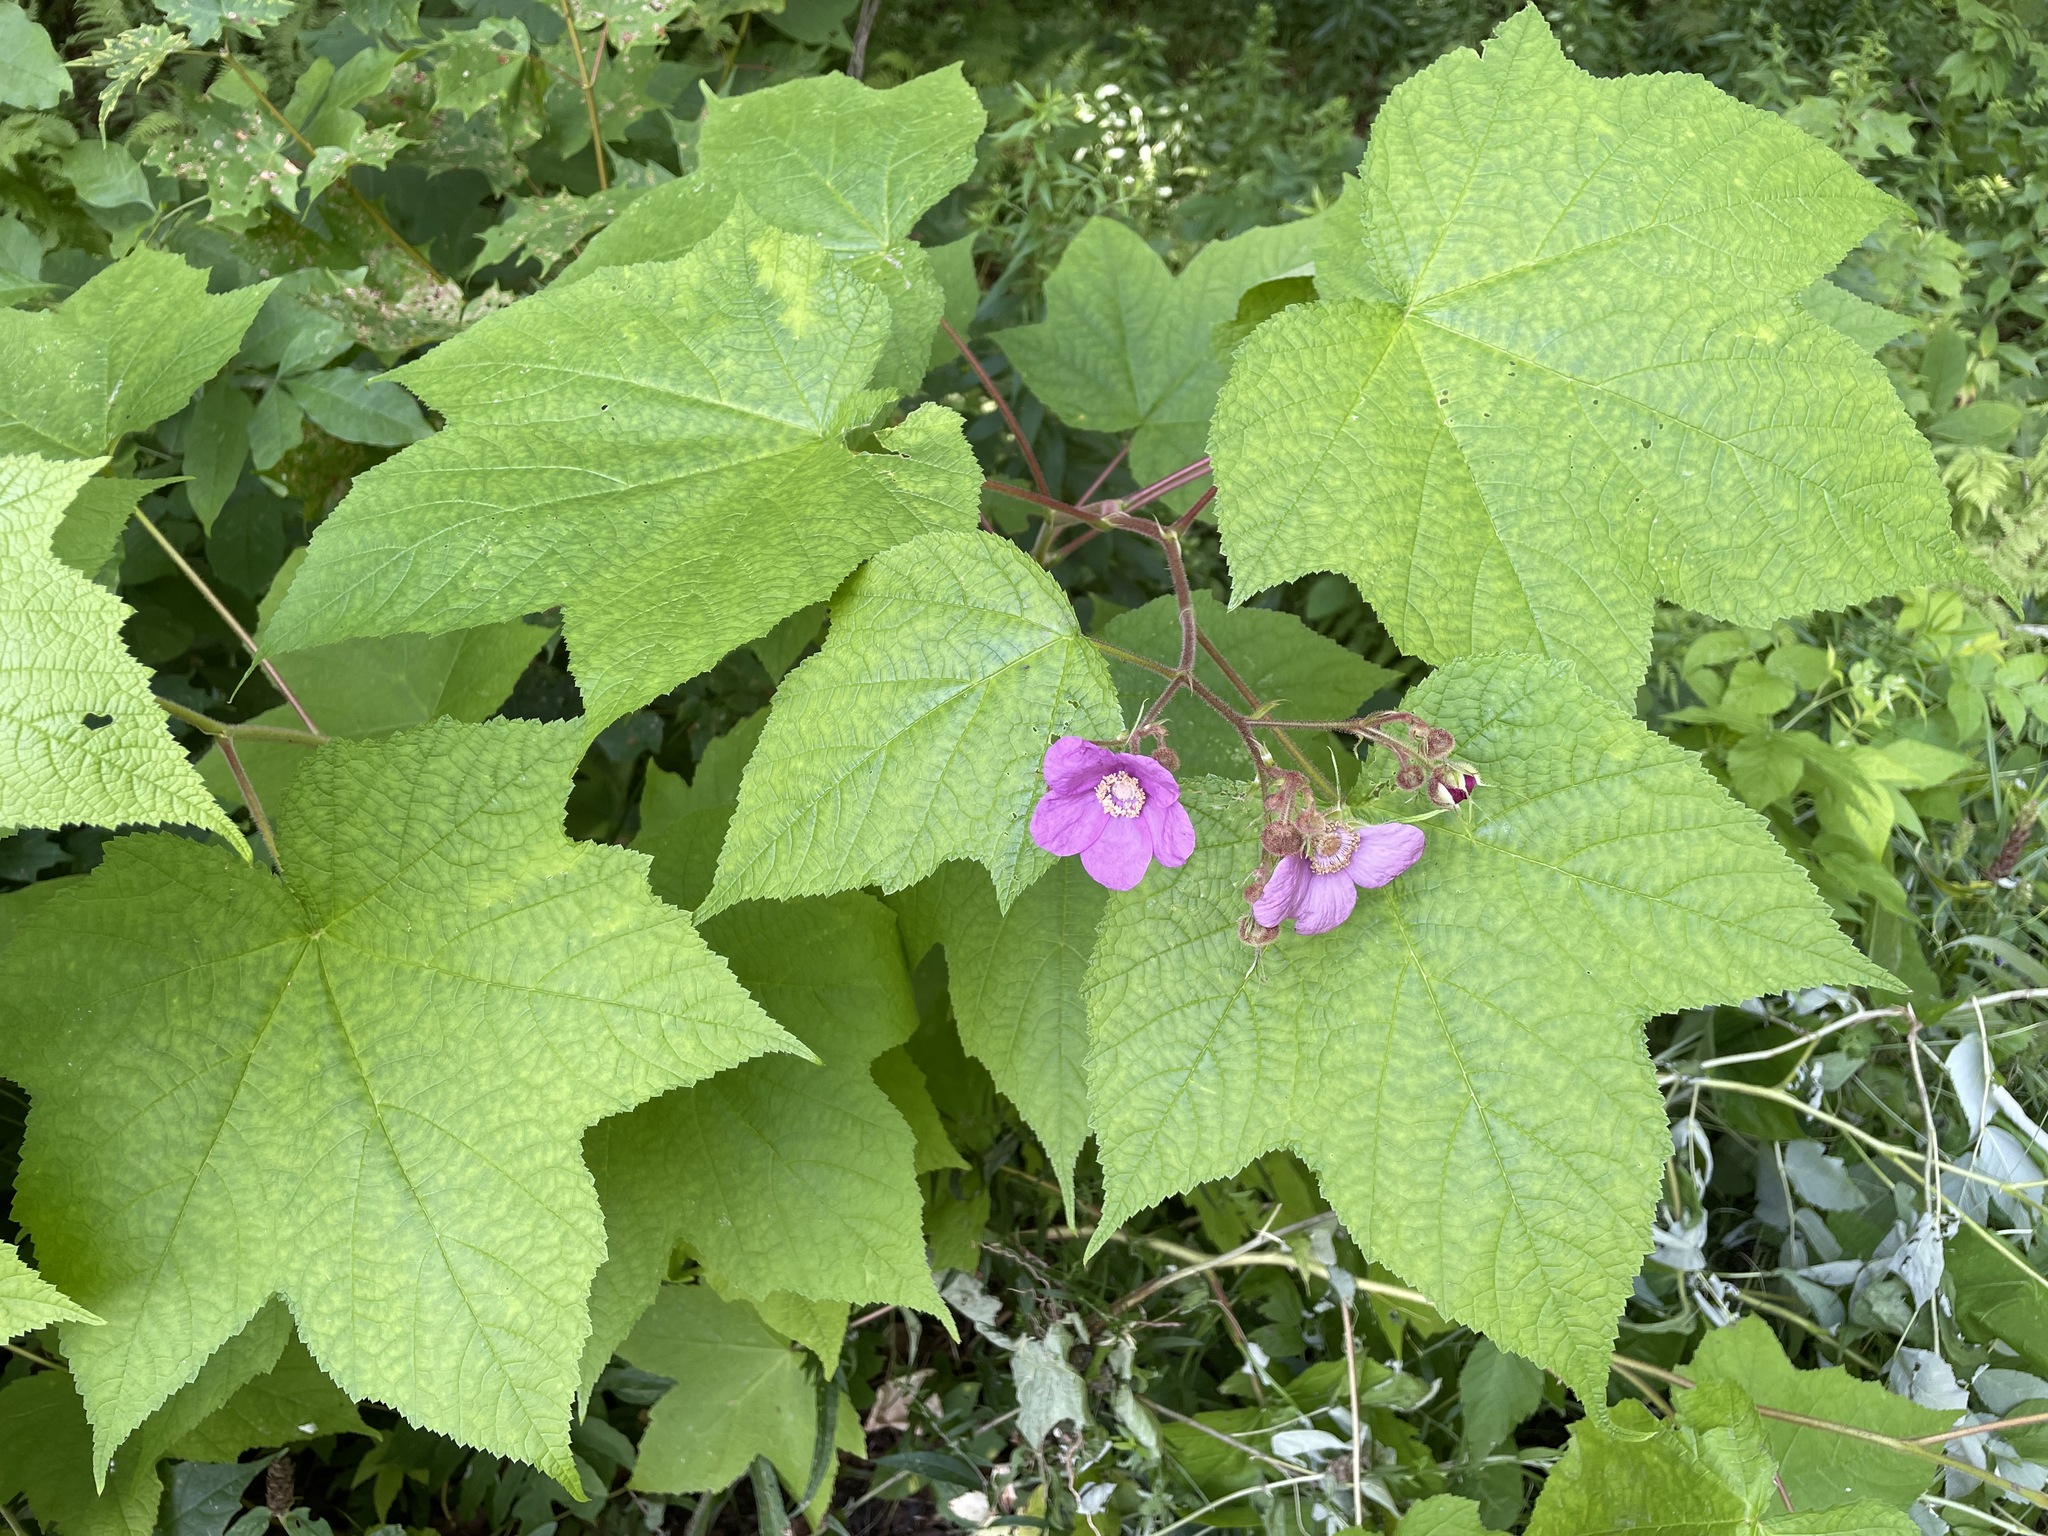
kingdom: Plantae
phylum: Tracheophyta
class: Magnoliopsida
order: Rosales
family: Rosaceae
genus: Rubus
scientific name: Rubus odoratus
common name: Purple-flowered raspberry
